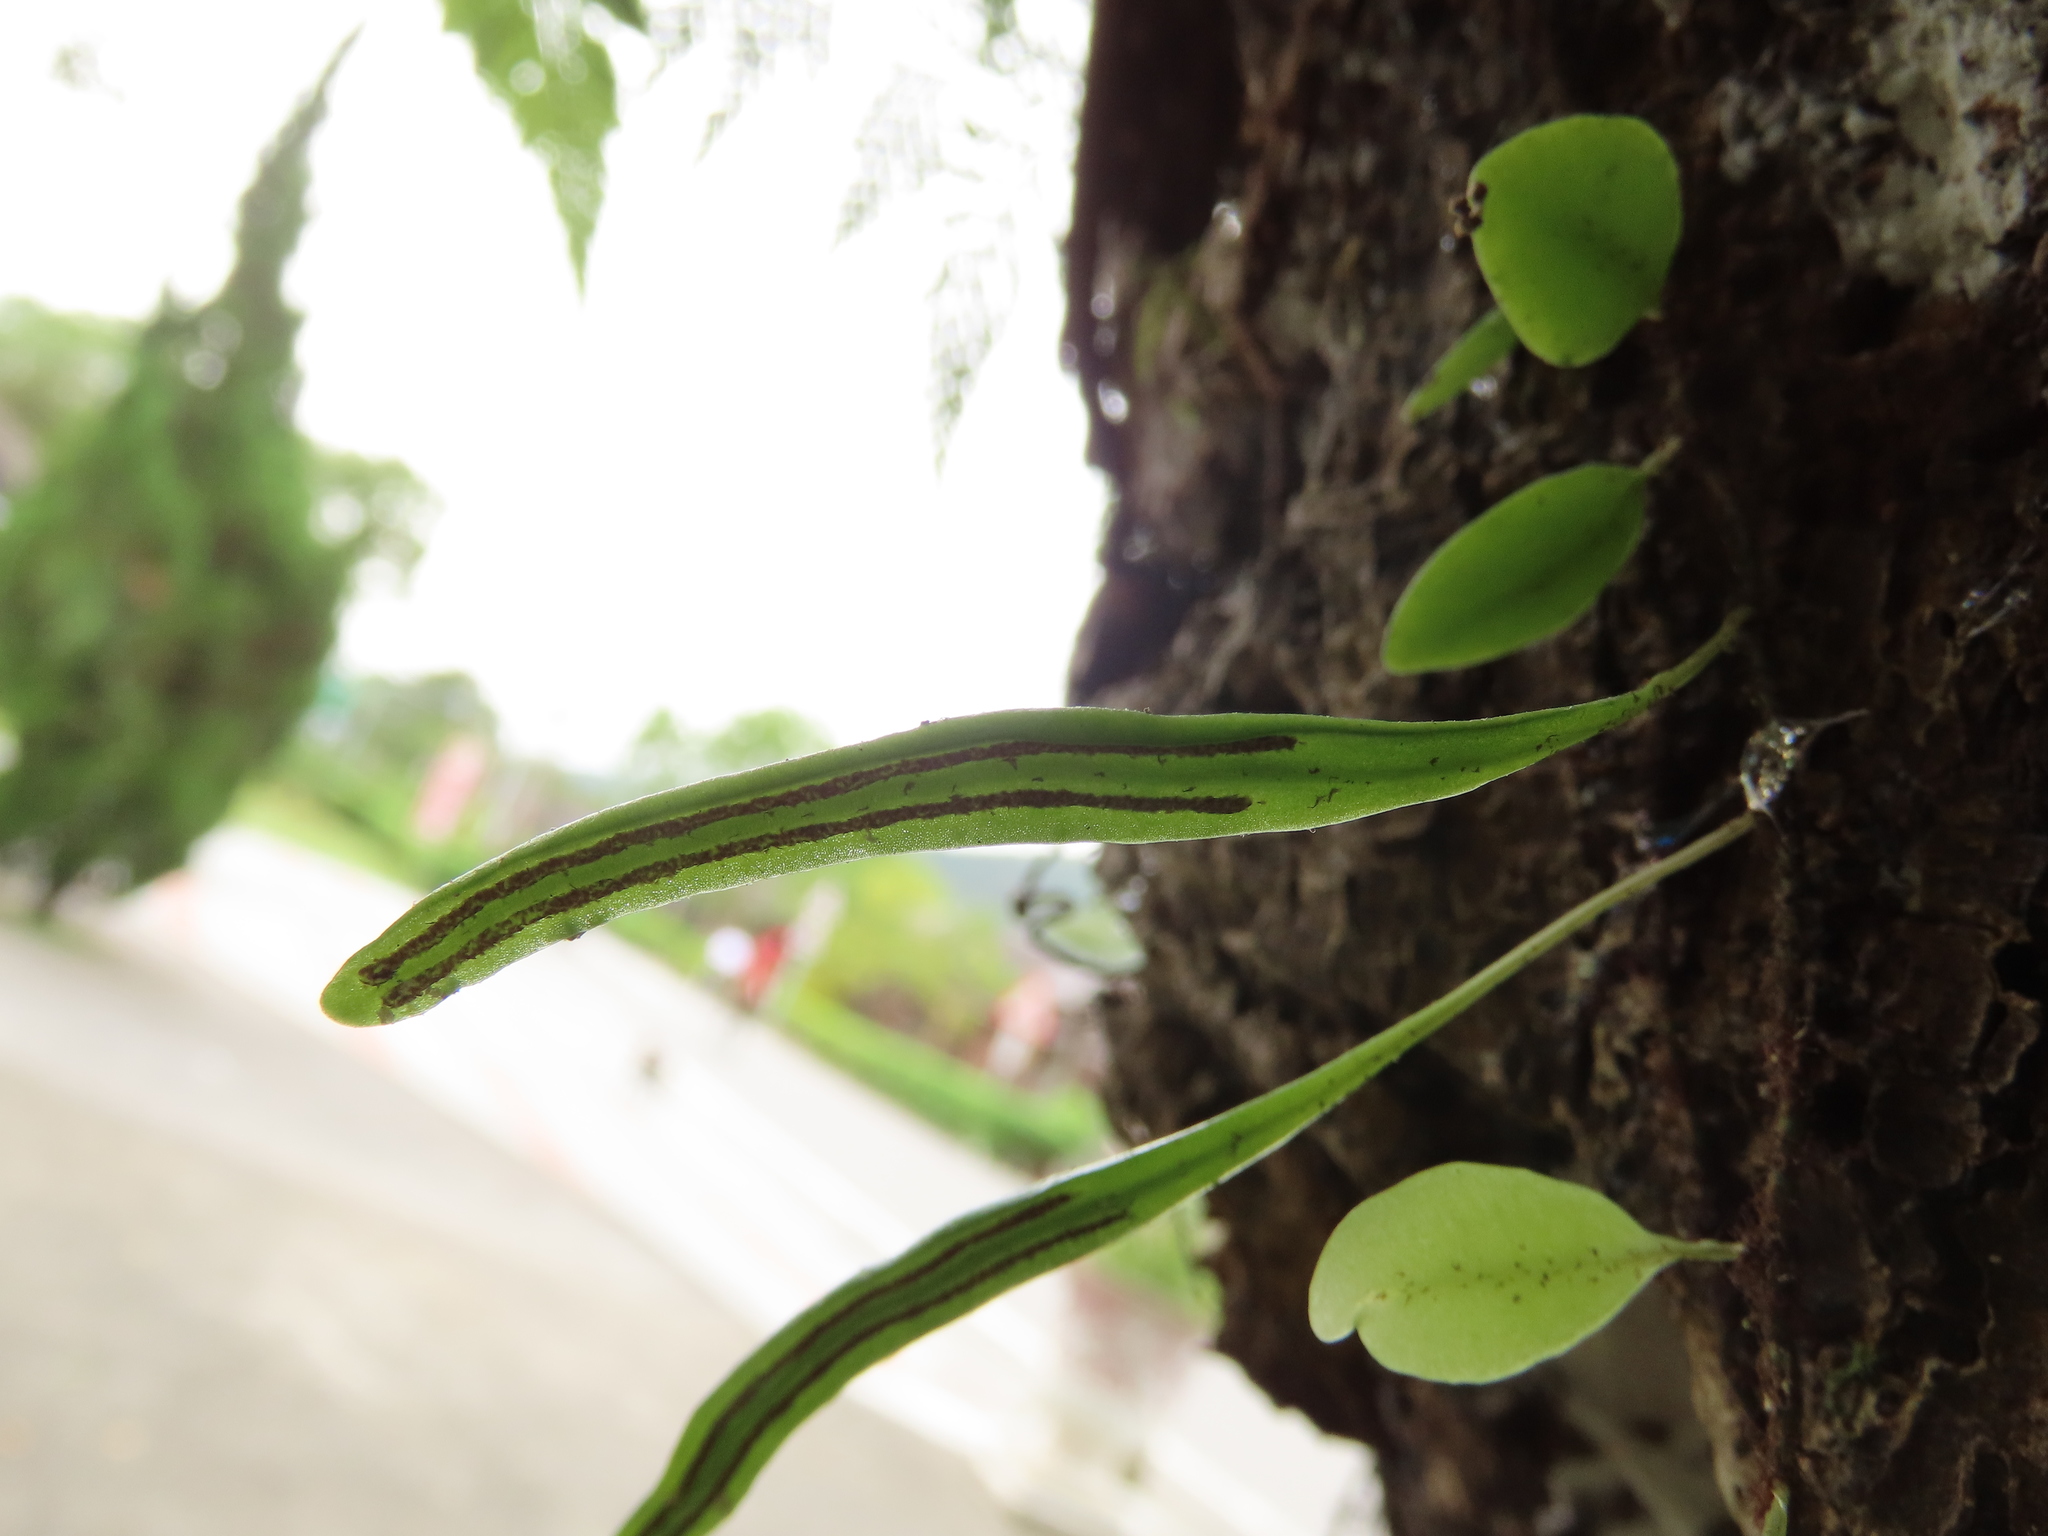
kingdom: Plantae
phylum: Tracheophyta
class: Polypodiopsida
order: Polypodiales
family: Polypodiaceae
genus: Lepisorus
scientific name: Lepisorus microphyllus
